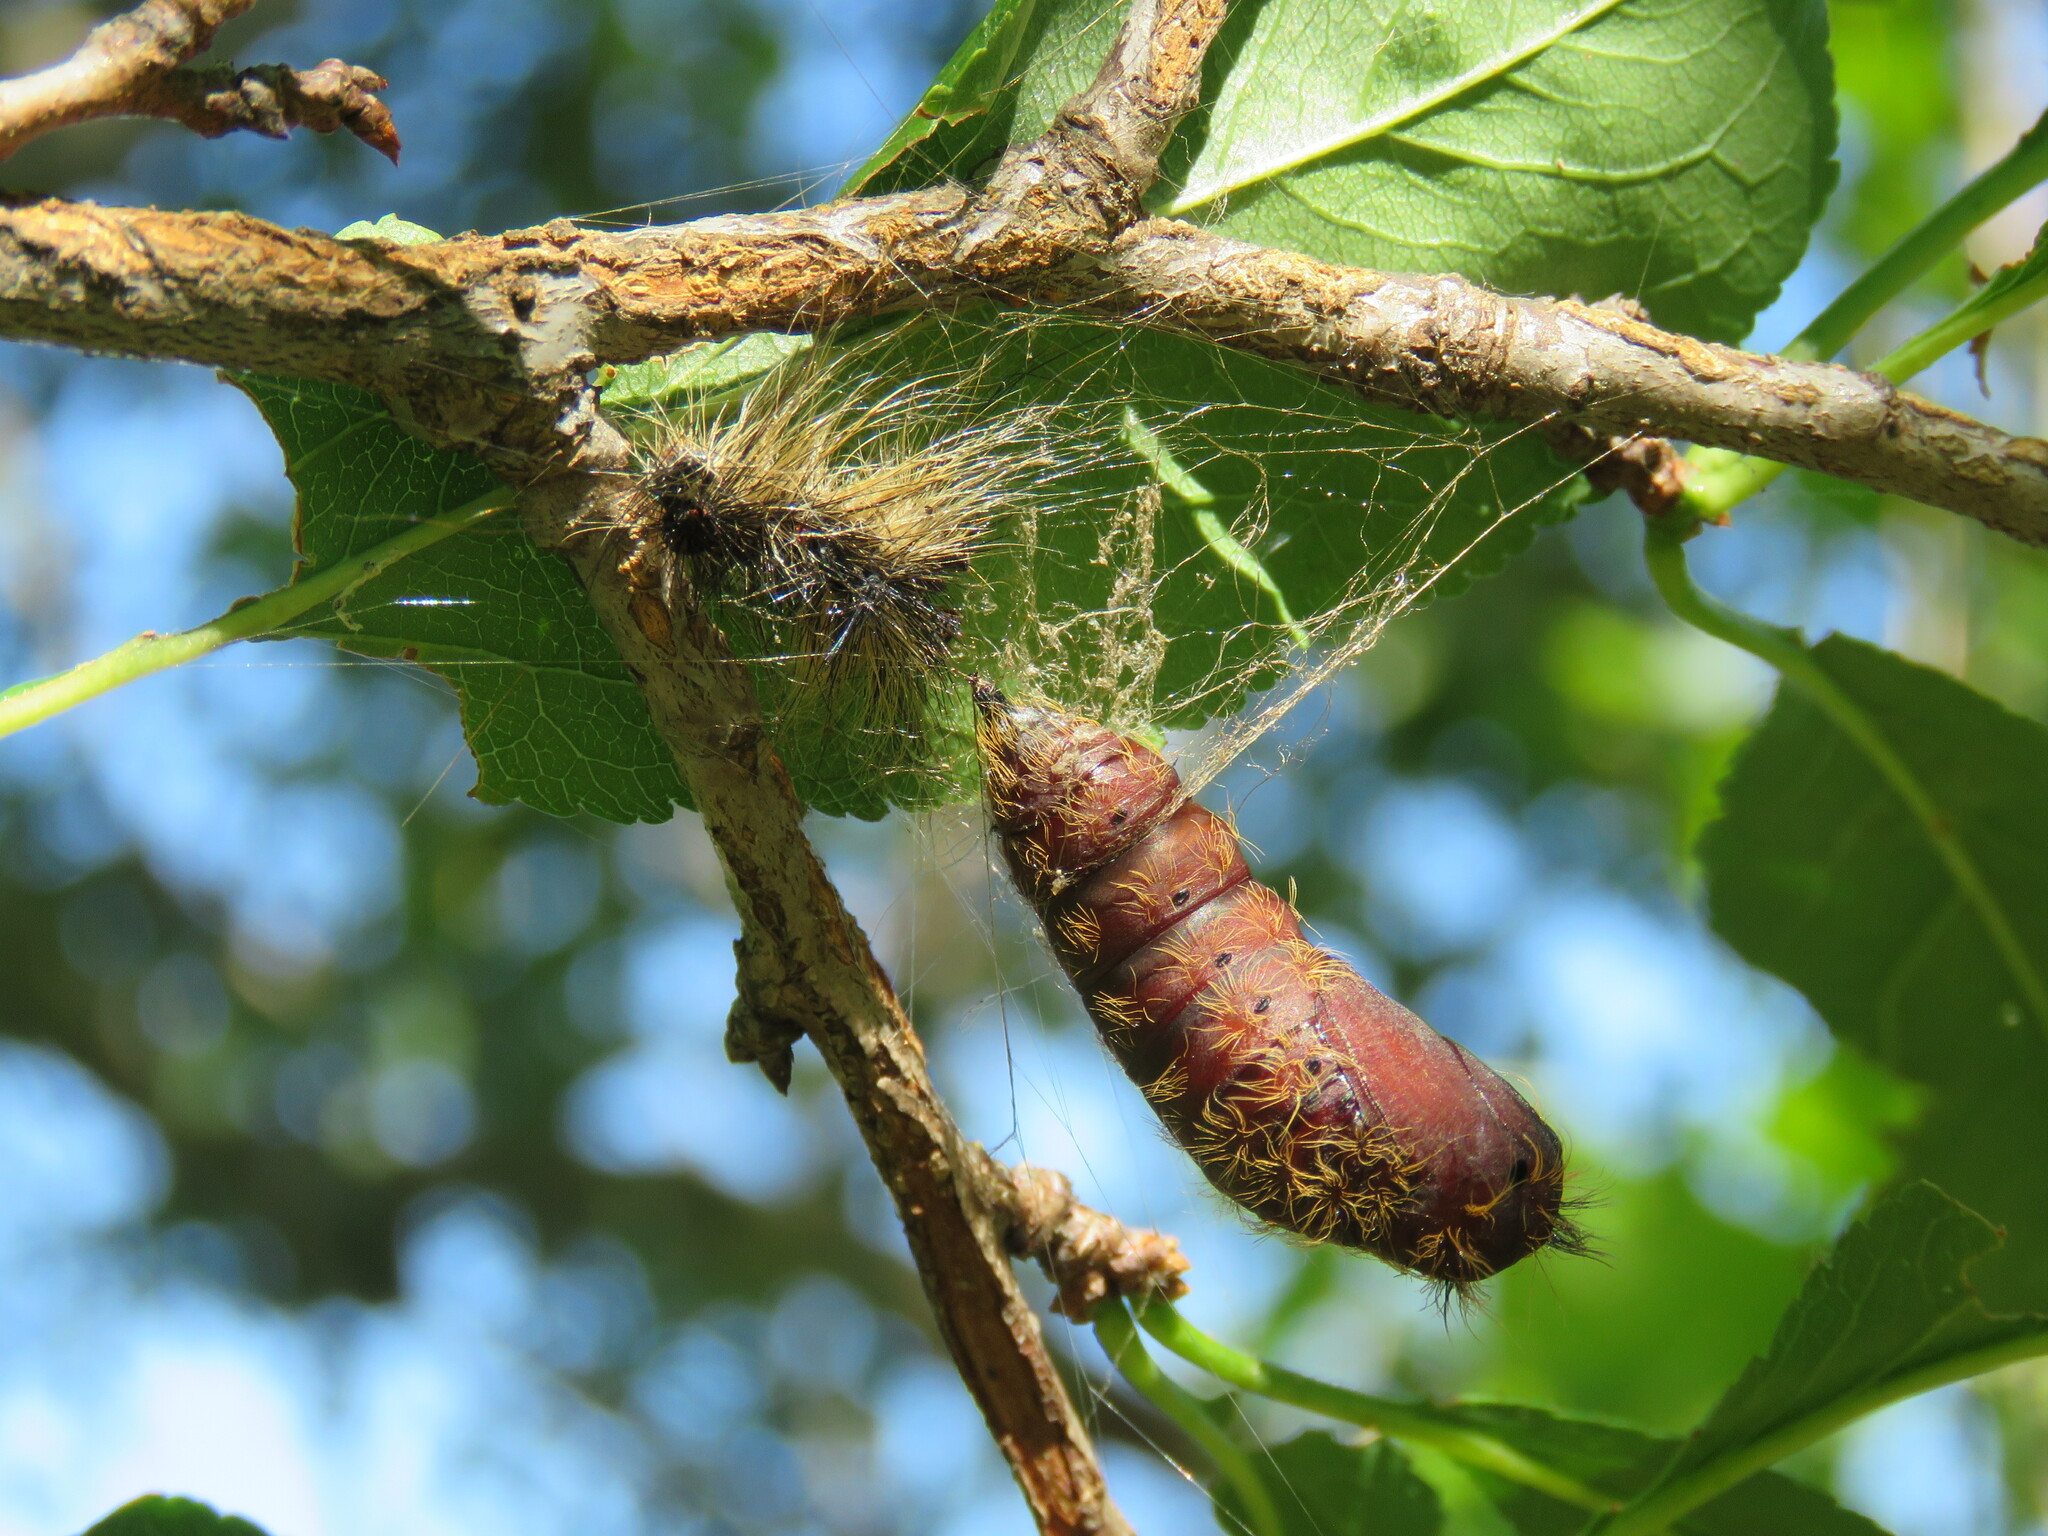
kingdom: Animalia
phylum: Arthropoda
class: Insecta
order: Lepidoptera
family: Erebidae
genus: Lymantria
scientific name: Lymantria dispar
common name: Gypsy moth
